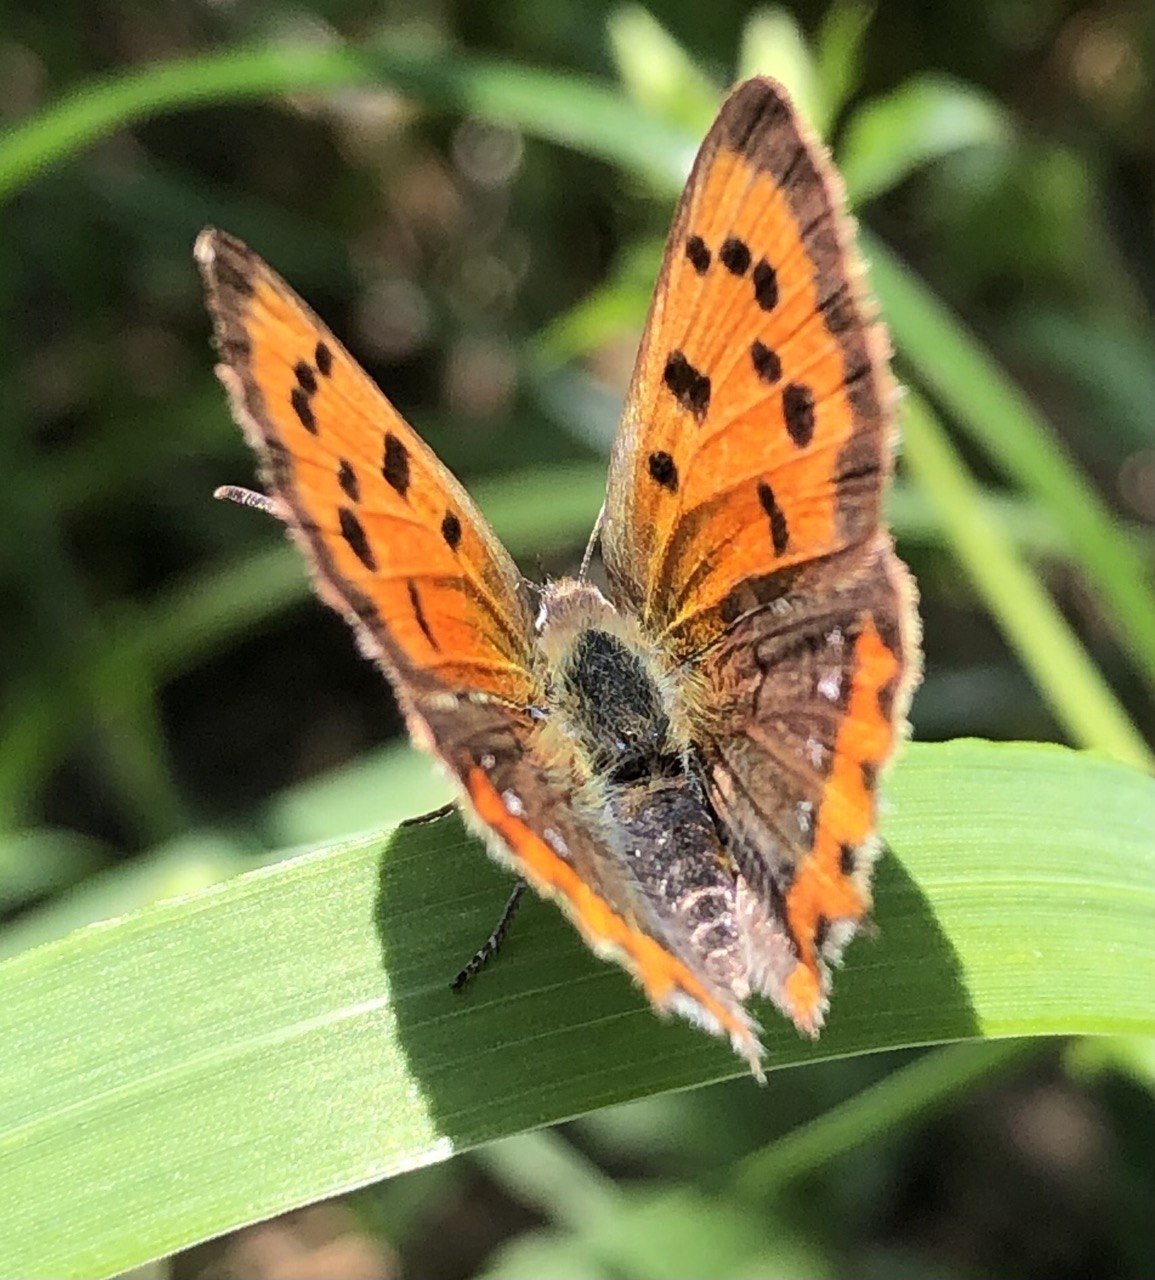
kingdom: Animalia
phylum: Arthropoda
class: Insecta
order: Lepidoptera
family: Lycaenidae
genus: Lycaena
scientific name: Lycaena phlaeas
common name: Small copper
